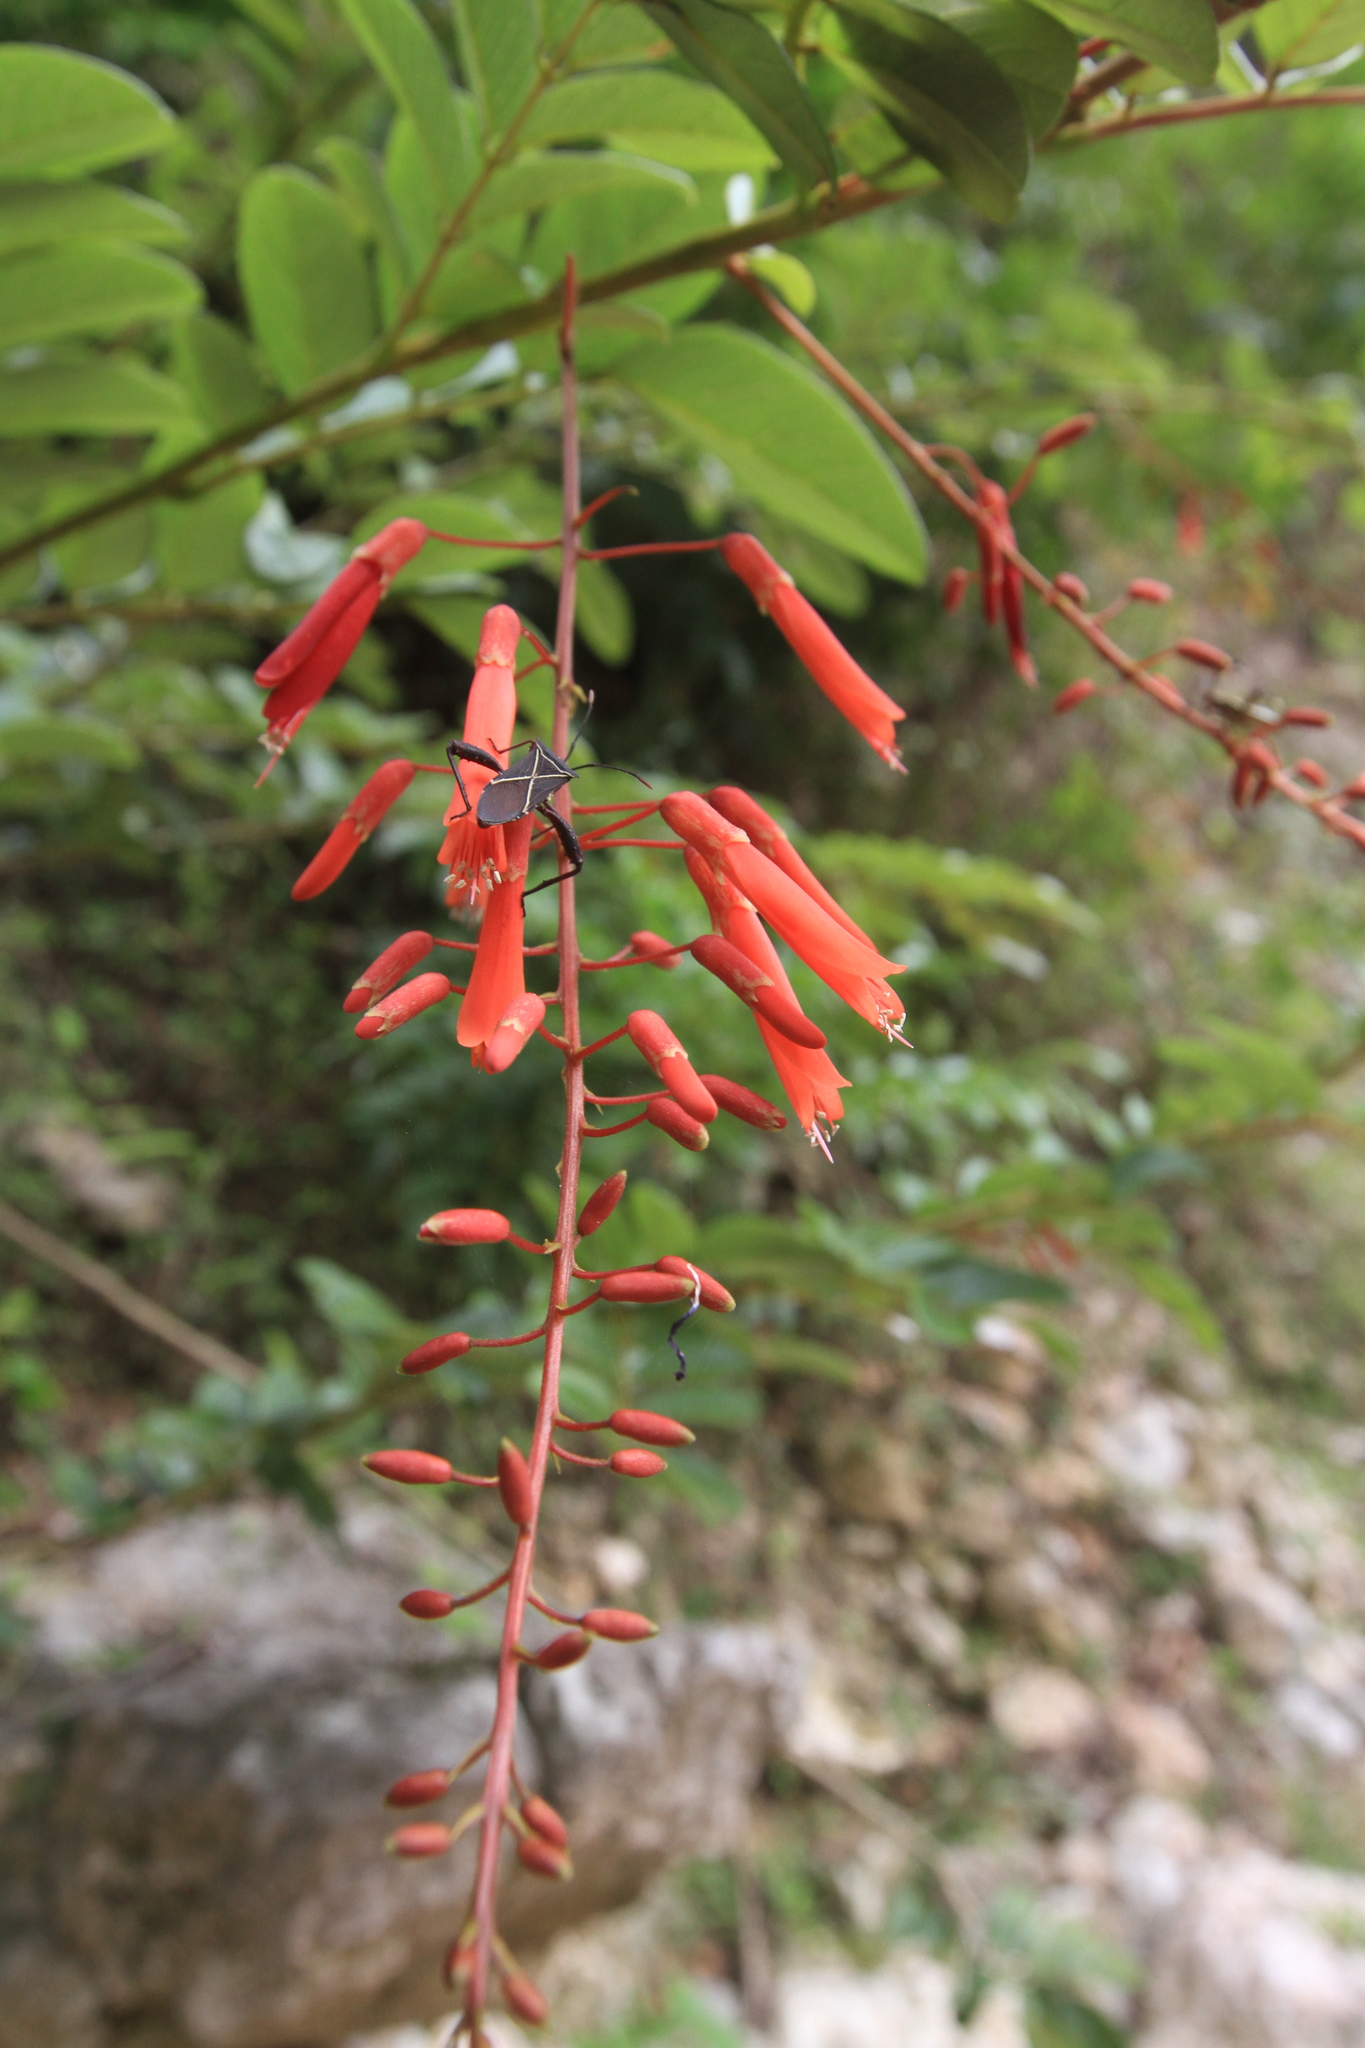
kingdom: Plantae
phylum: Tracheophyta
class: Magnoliopsida
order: Fabales
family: Fabaceae
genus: Poitea
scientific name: Poitea multiflora
